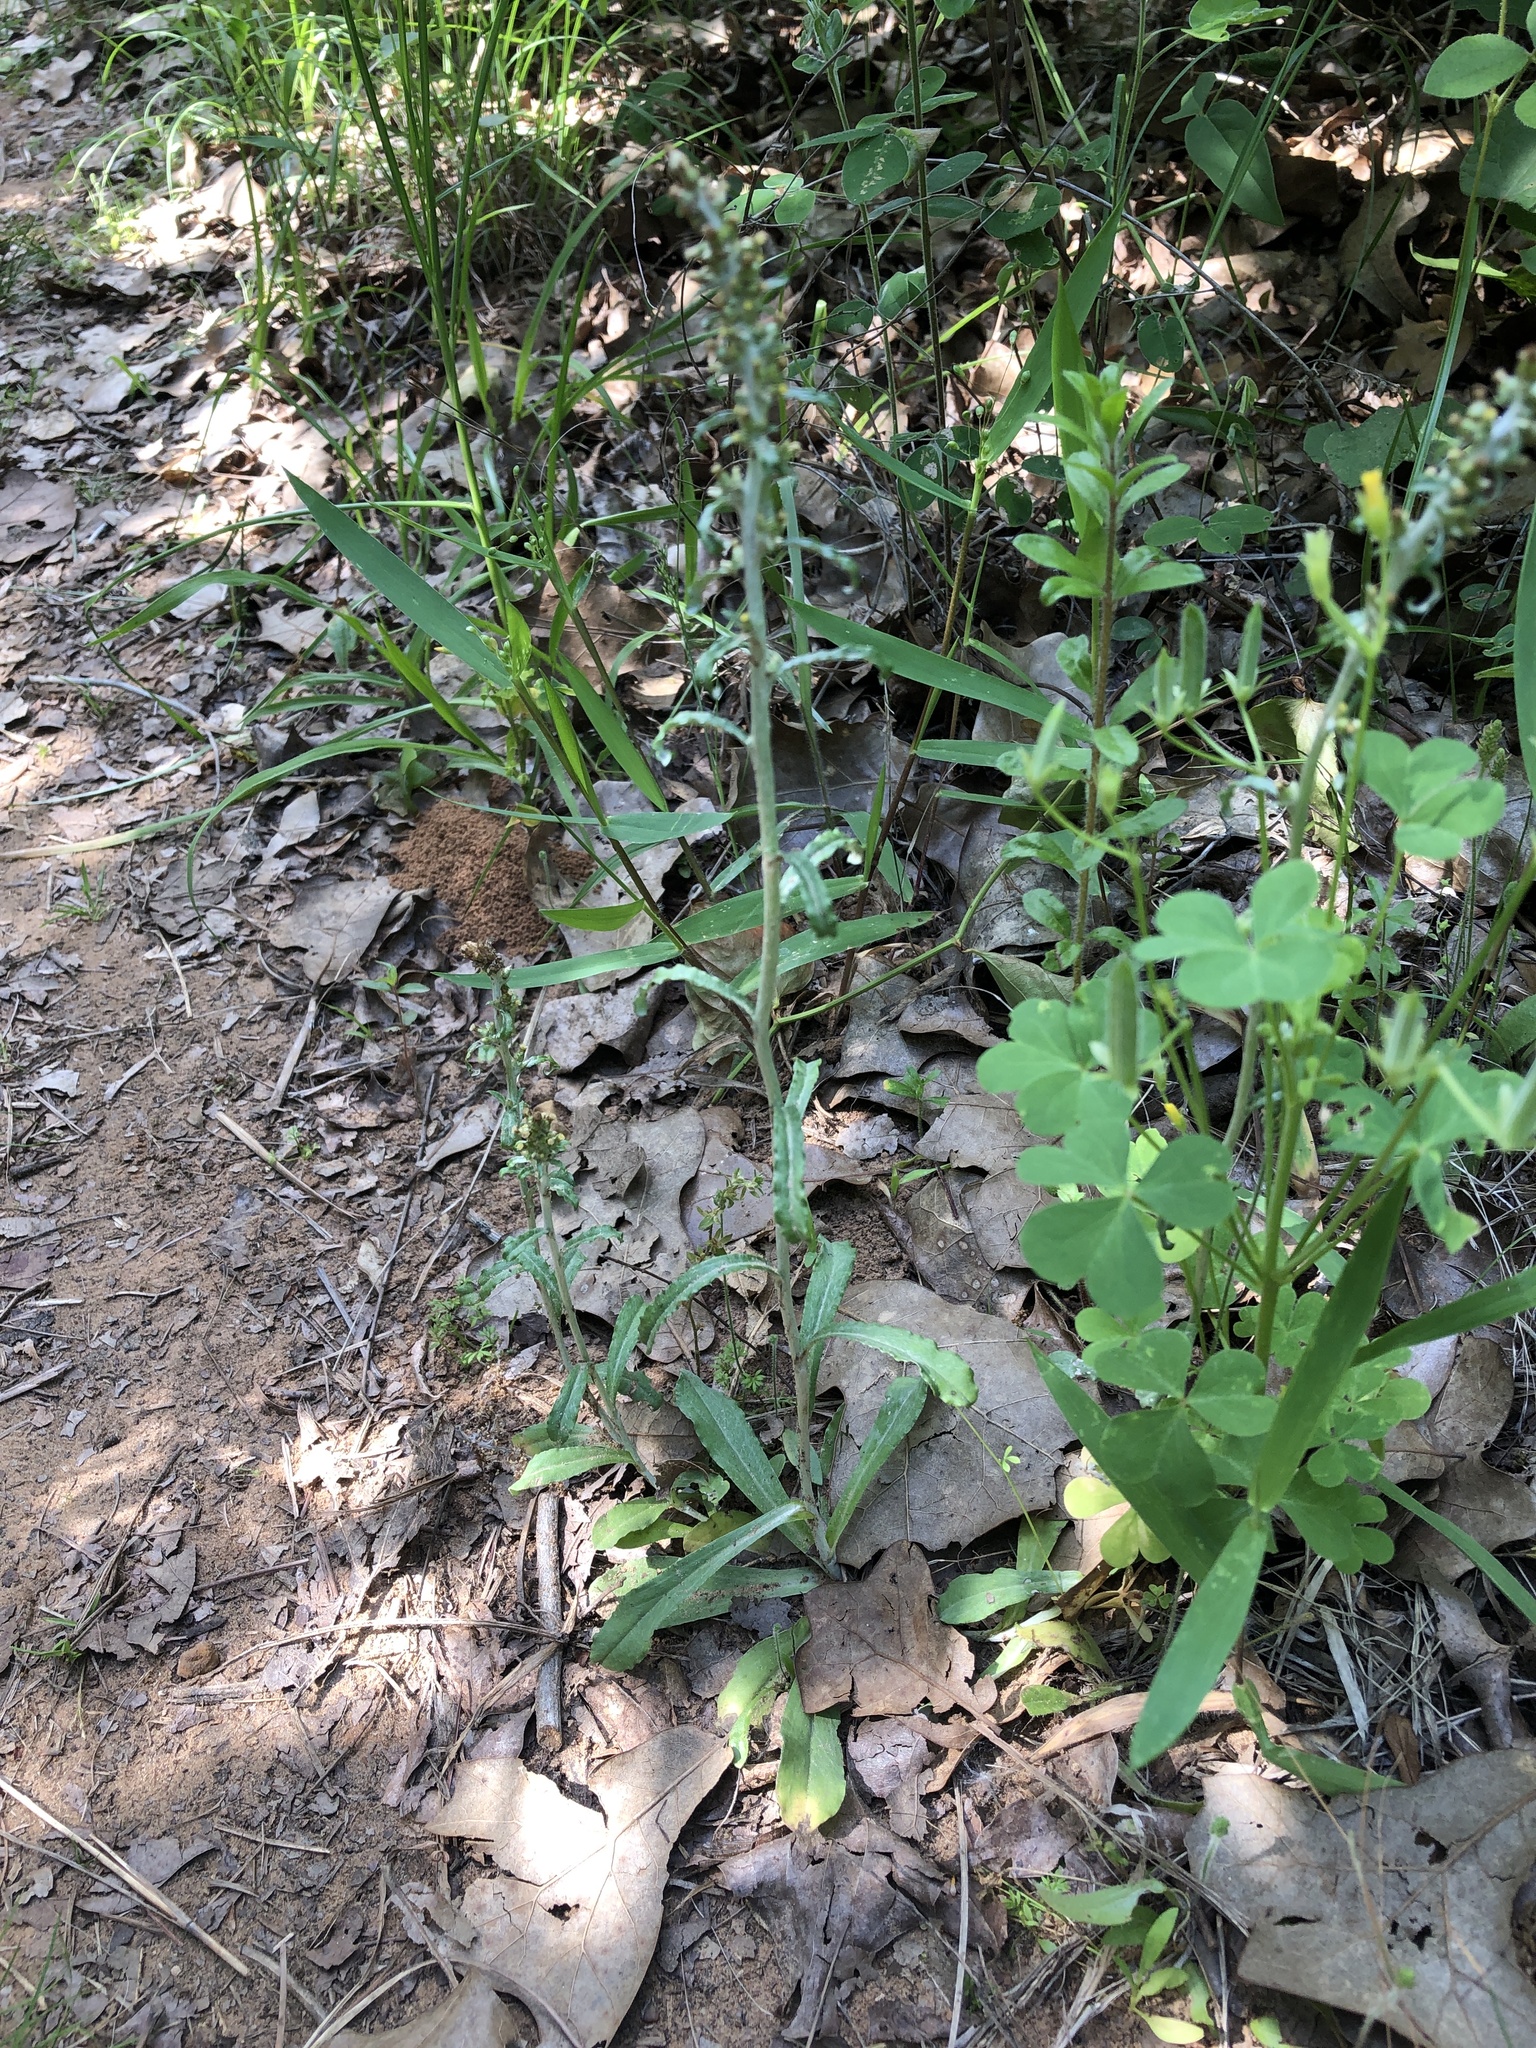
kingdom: Plantae
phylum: Tracheophyta
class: Magnoliopsida
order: Asterales
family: Asteraceae
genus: Gamochaeta
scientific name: Gamochaeta argyrinea
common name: Silvery cudweed
